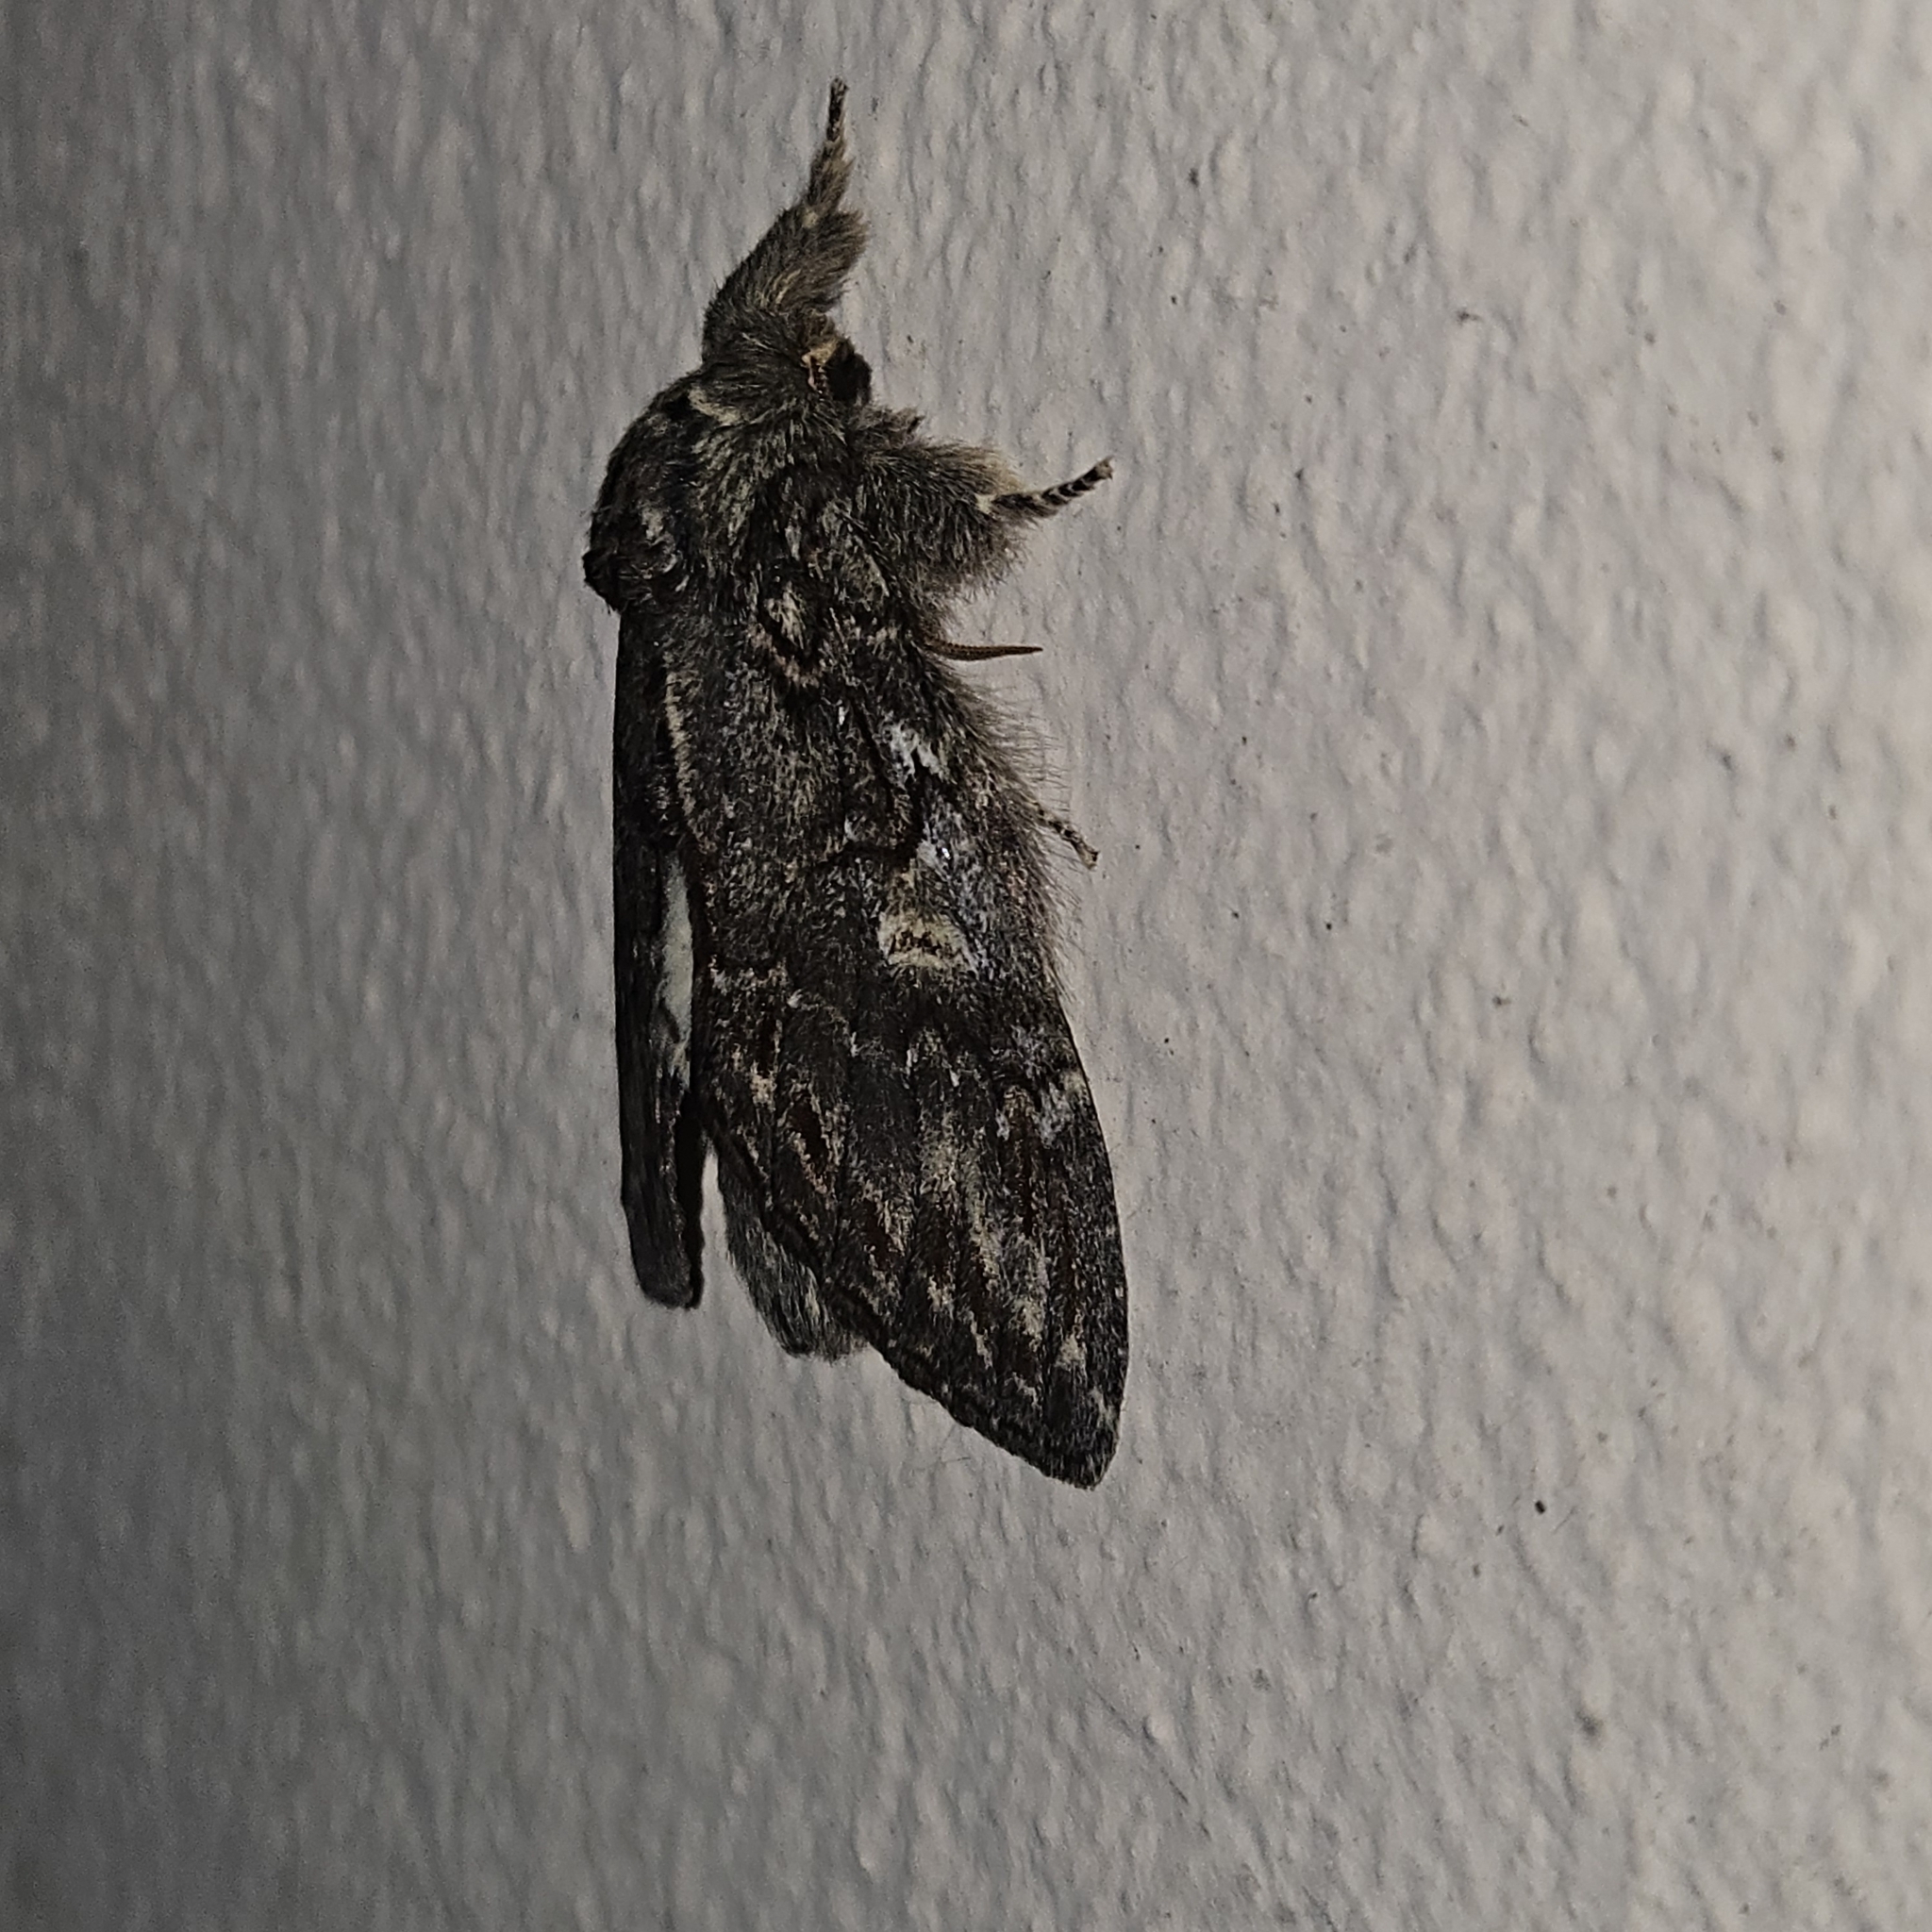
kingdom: Animalia
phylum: Arthropoda
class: Insecta
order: Lepidoptera
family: Notodontidae
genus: Peridea
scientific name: Peridea anceps
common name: Great prominent
